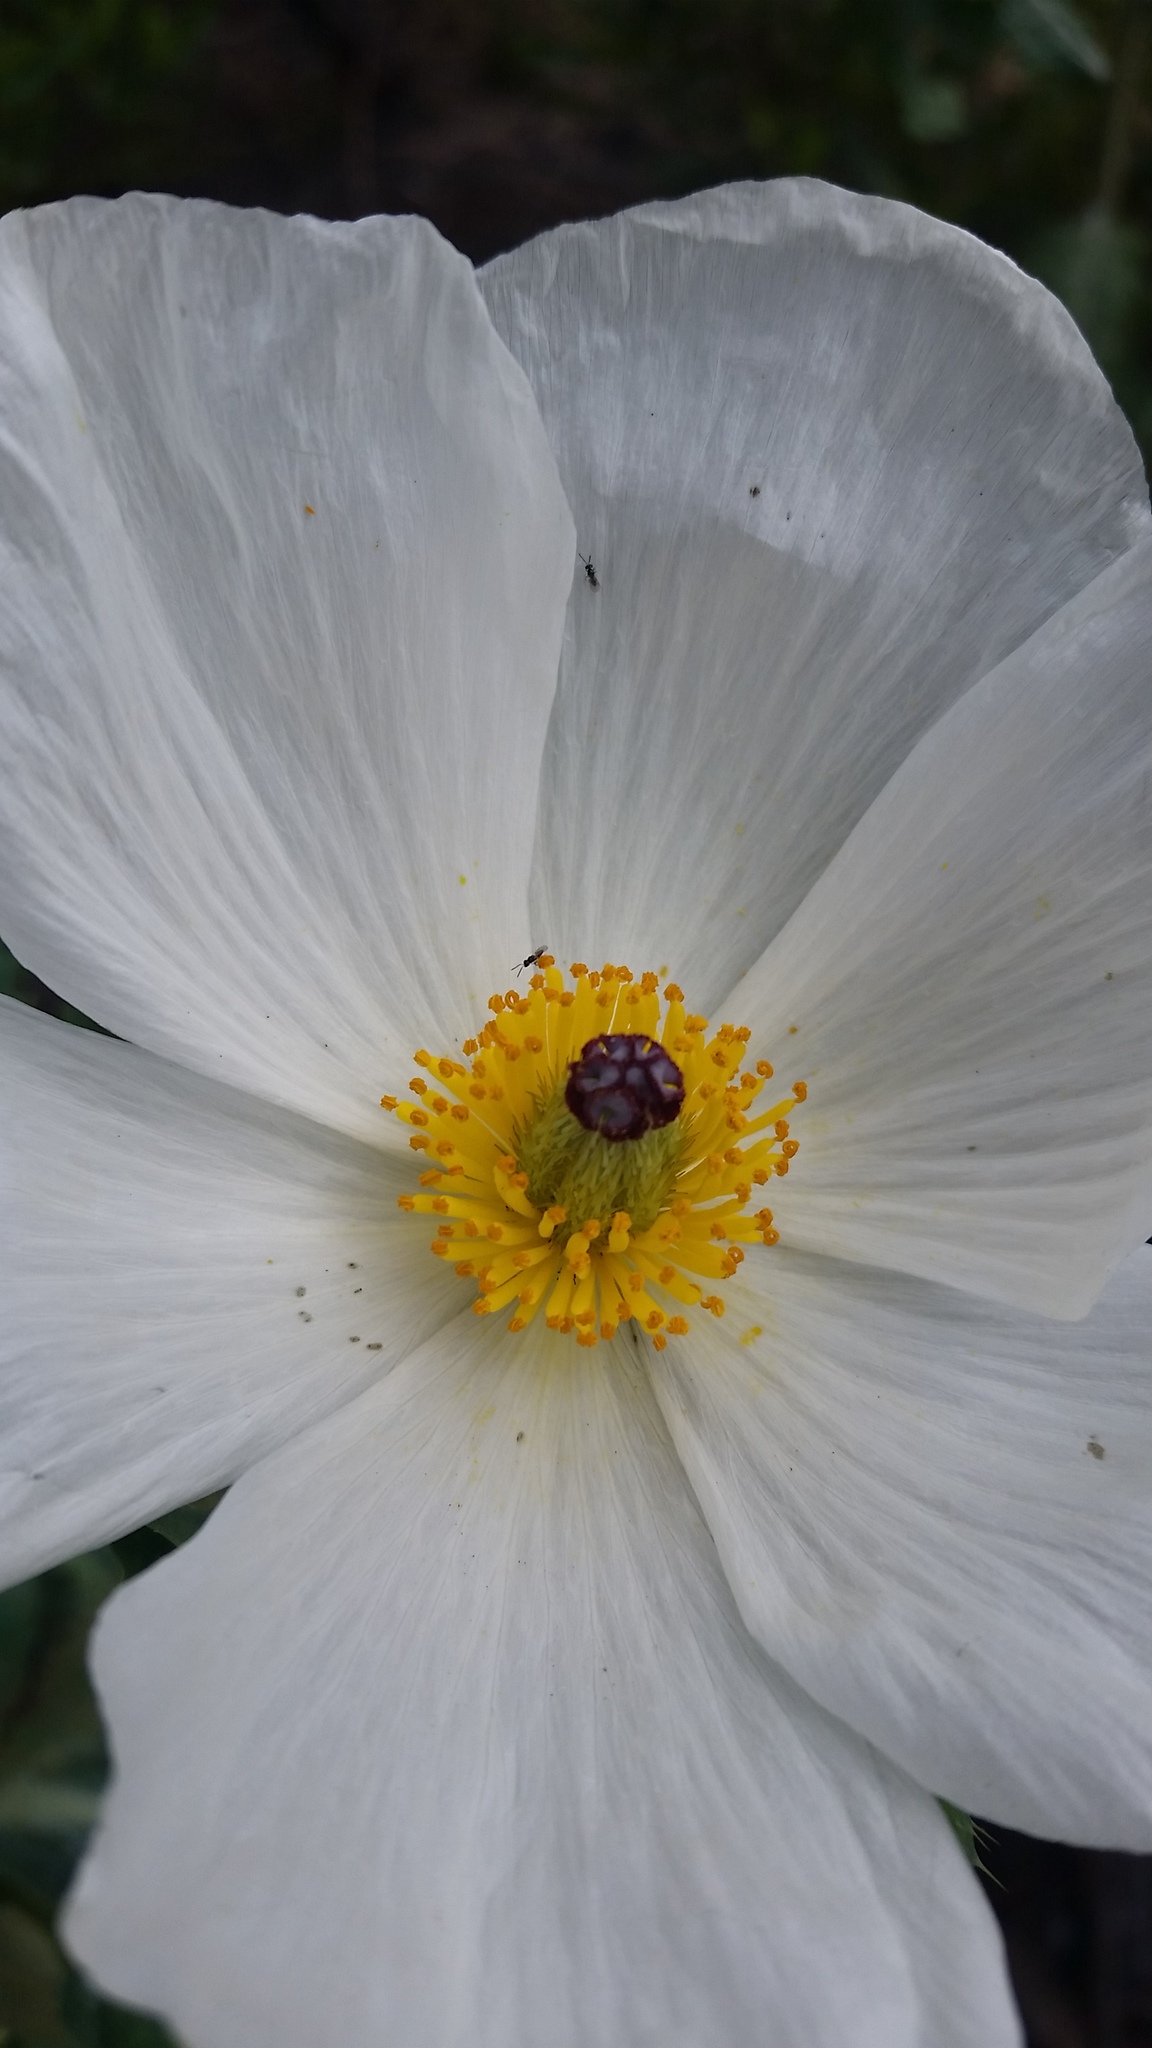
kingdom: Plantae
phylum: Tracheophyta
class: Magnoliopsida
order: Ranunculales
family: Papaveraceae
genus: Argemone
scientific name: Argemone glauca
